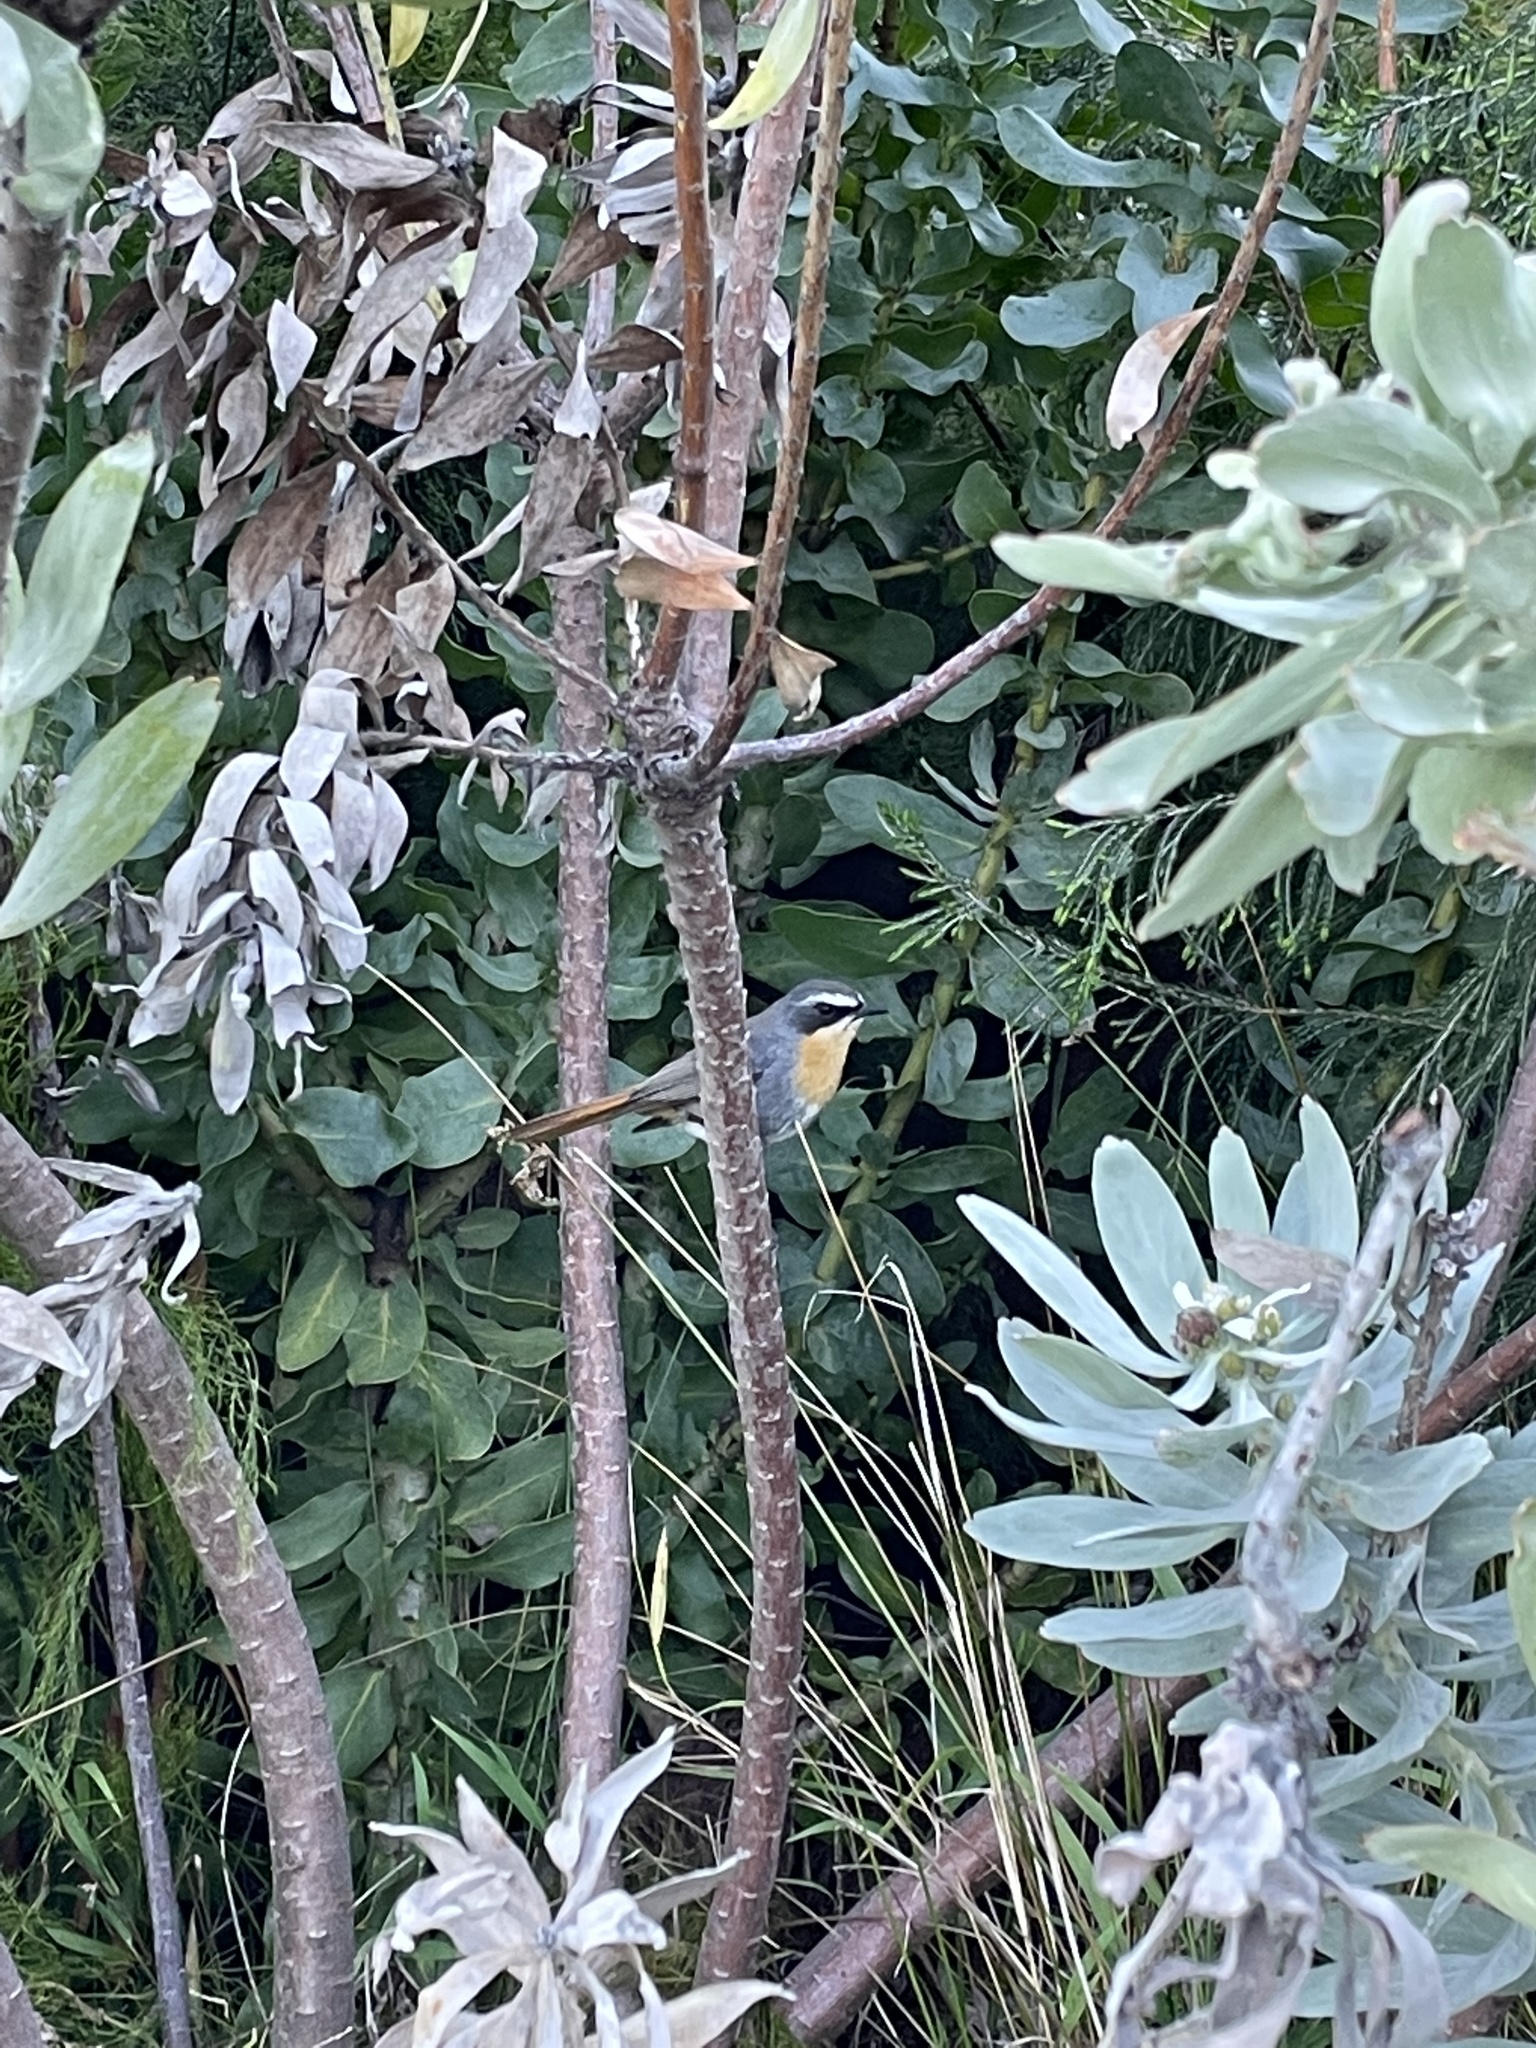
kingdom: Animalia
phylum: Chordata
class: Aves
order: Passeriformes
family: Muscicapidae
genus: Cossypha
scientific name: Cossypha caffra
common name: Cape robin-chat
